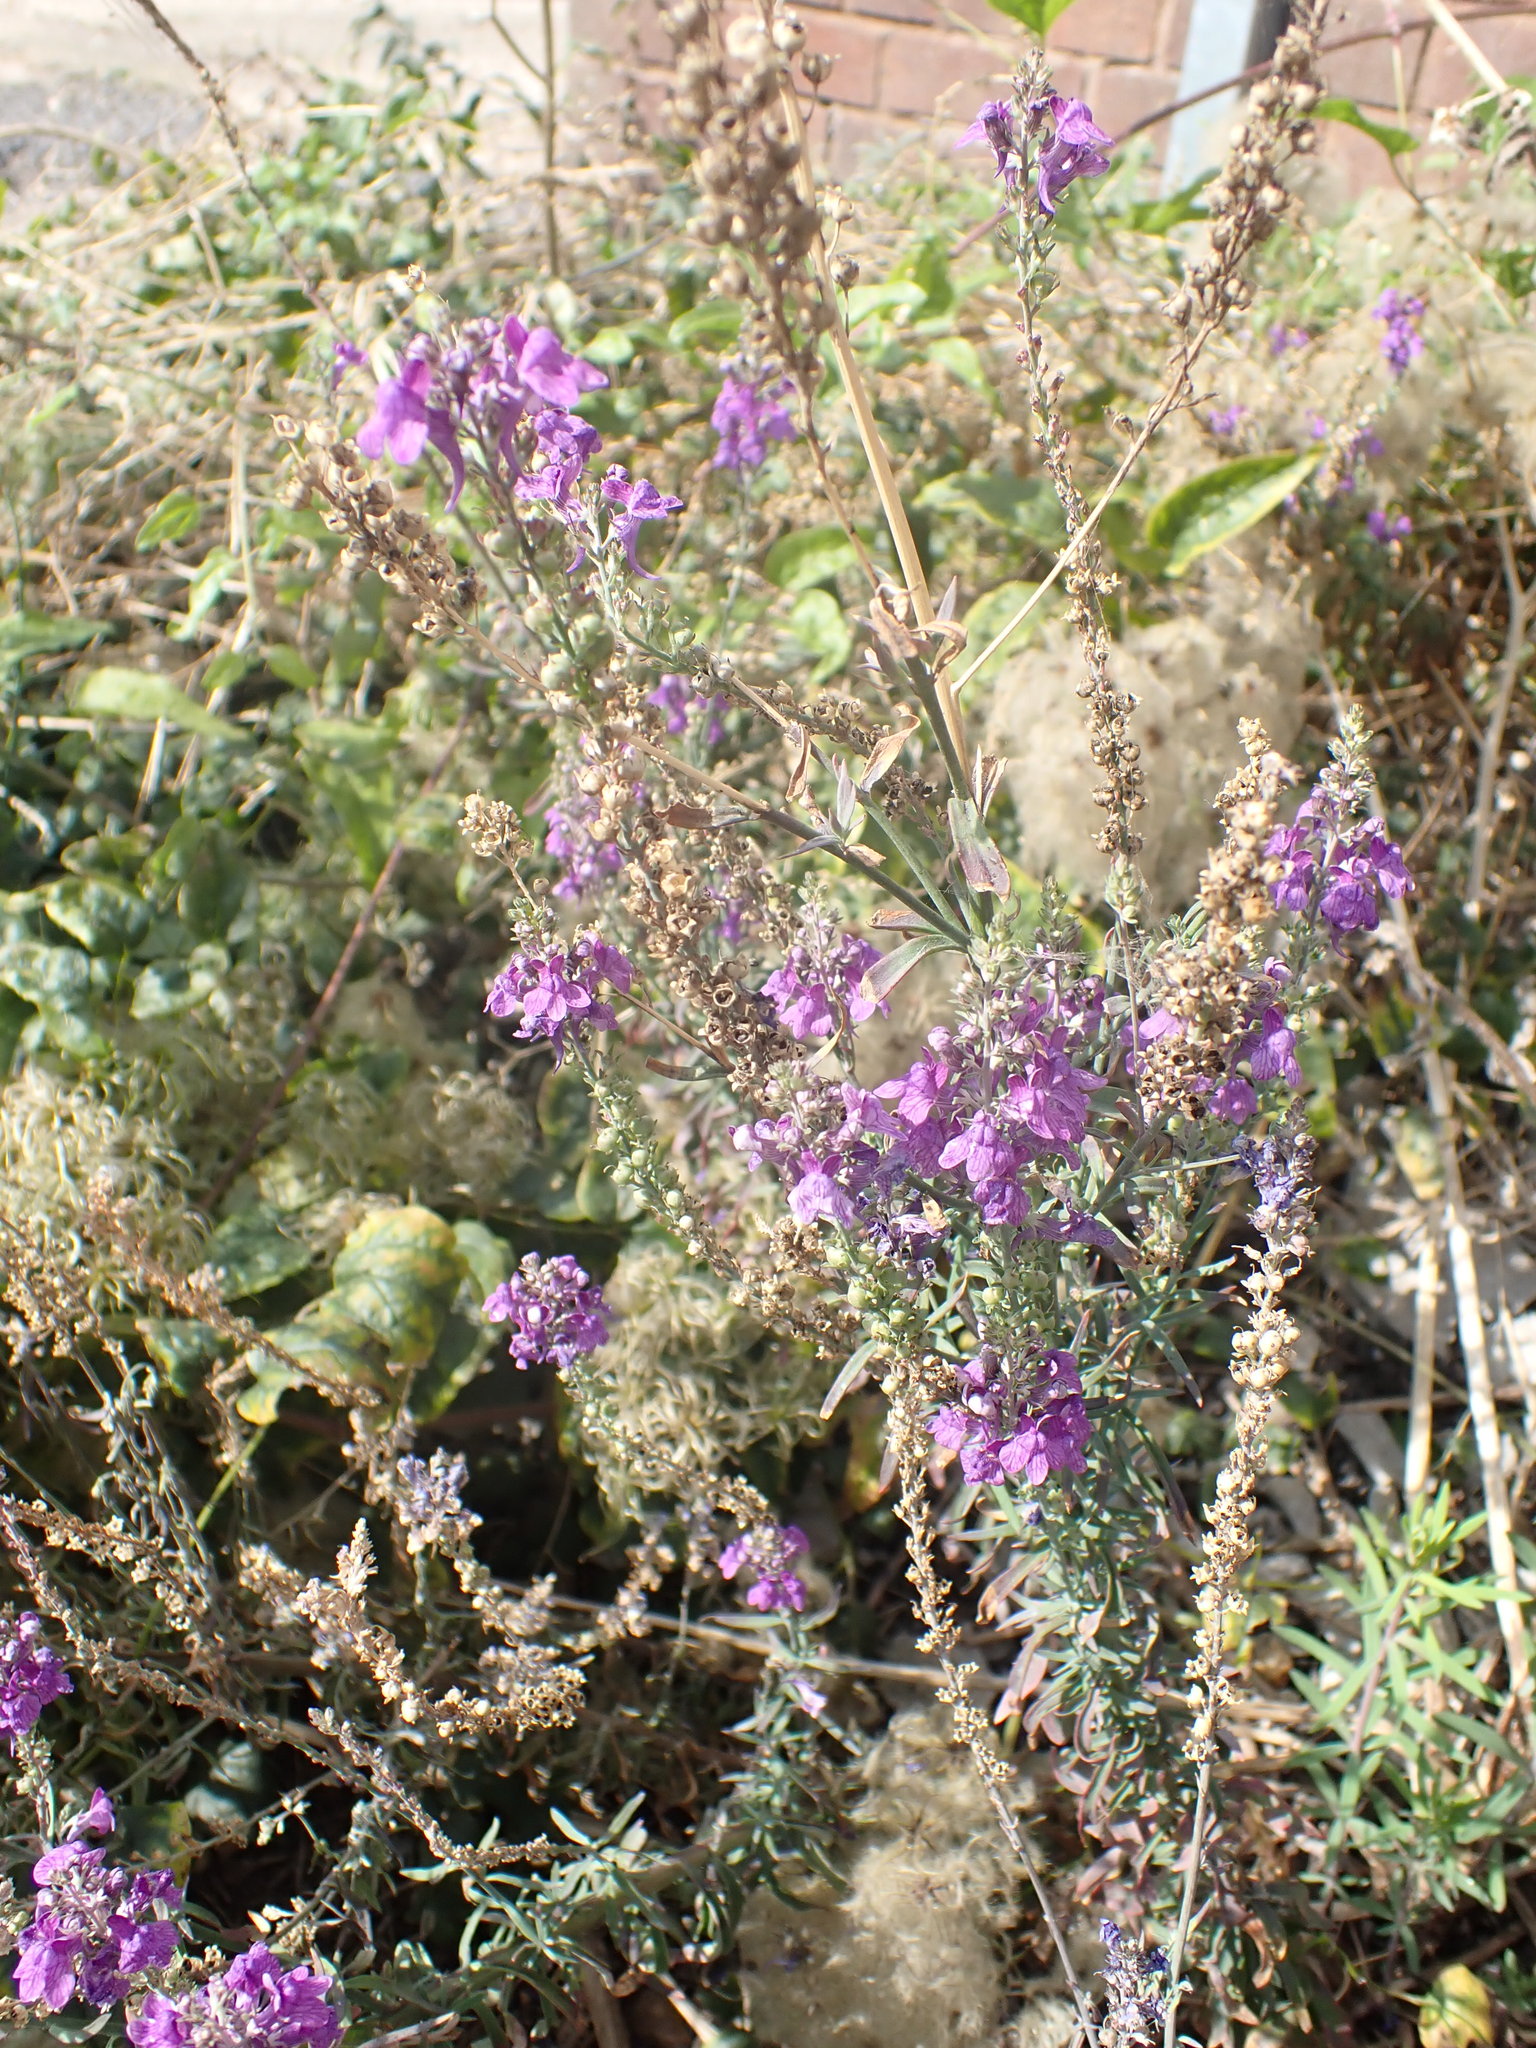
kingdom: Plantae
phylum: Tracheophyta
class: Magnoliopsida
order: Lamiales
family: Plantaginaceae
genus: Linaria
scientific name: Linaria purpurea
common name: Purple toadflax
